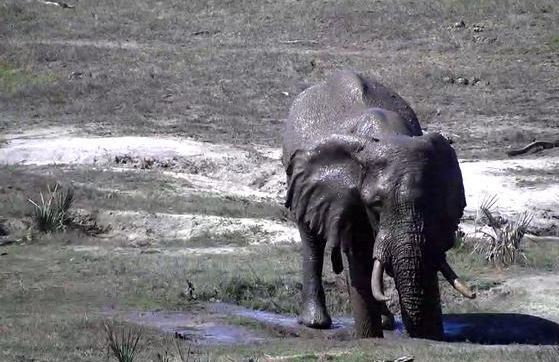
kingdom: Animalia
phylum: Chordata
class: Mammalia
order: Proboscidea
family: Elephantidae
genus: Loxodonta
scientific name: Loxodonta africana
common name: African elephant
